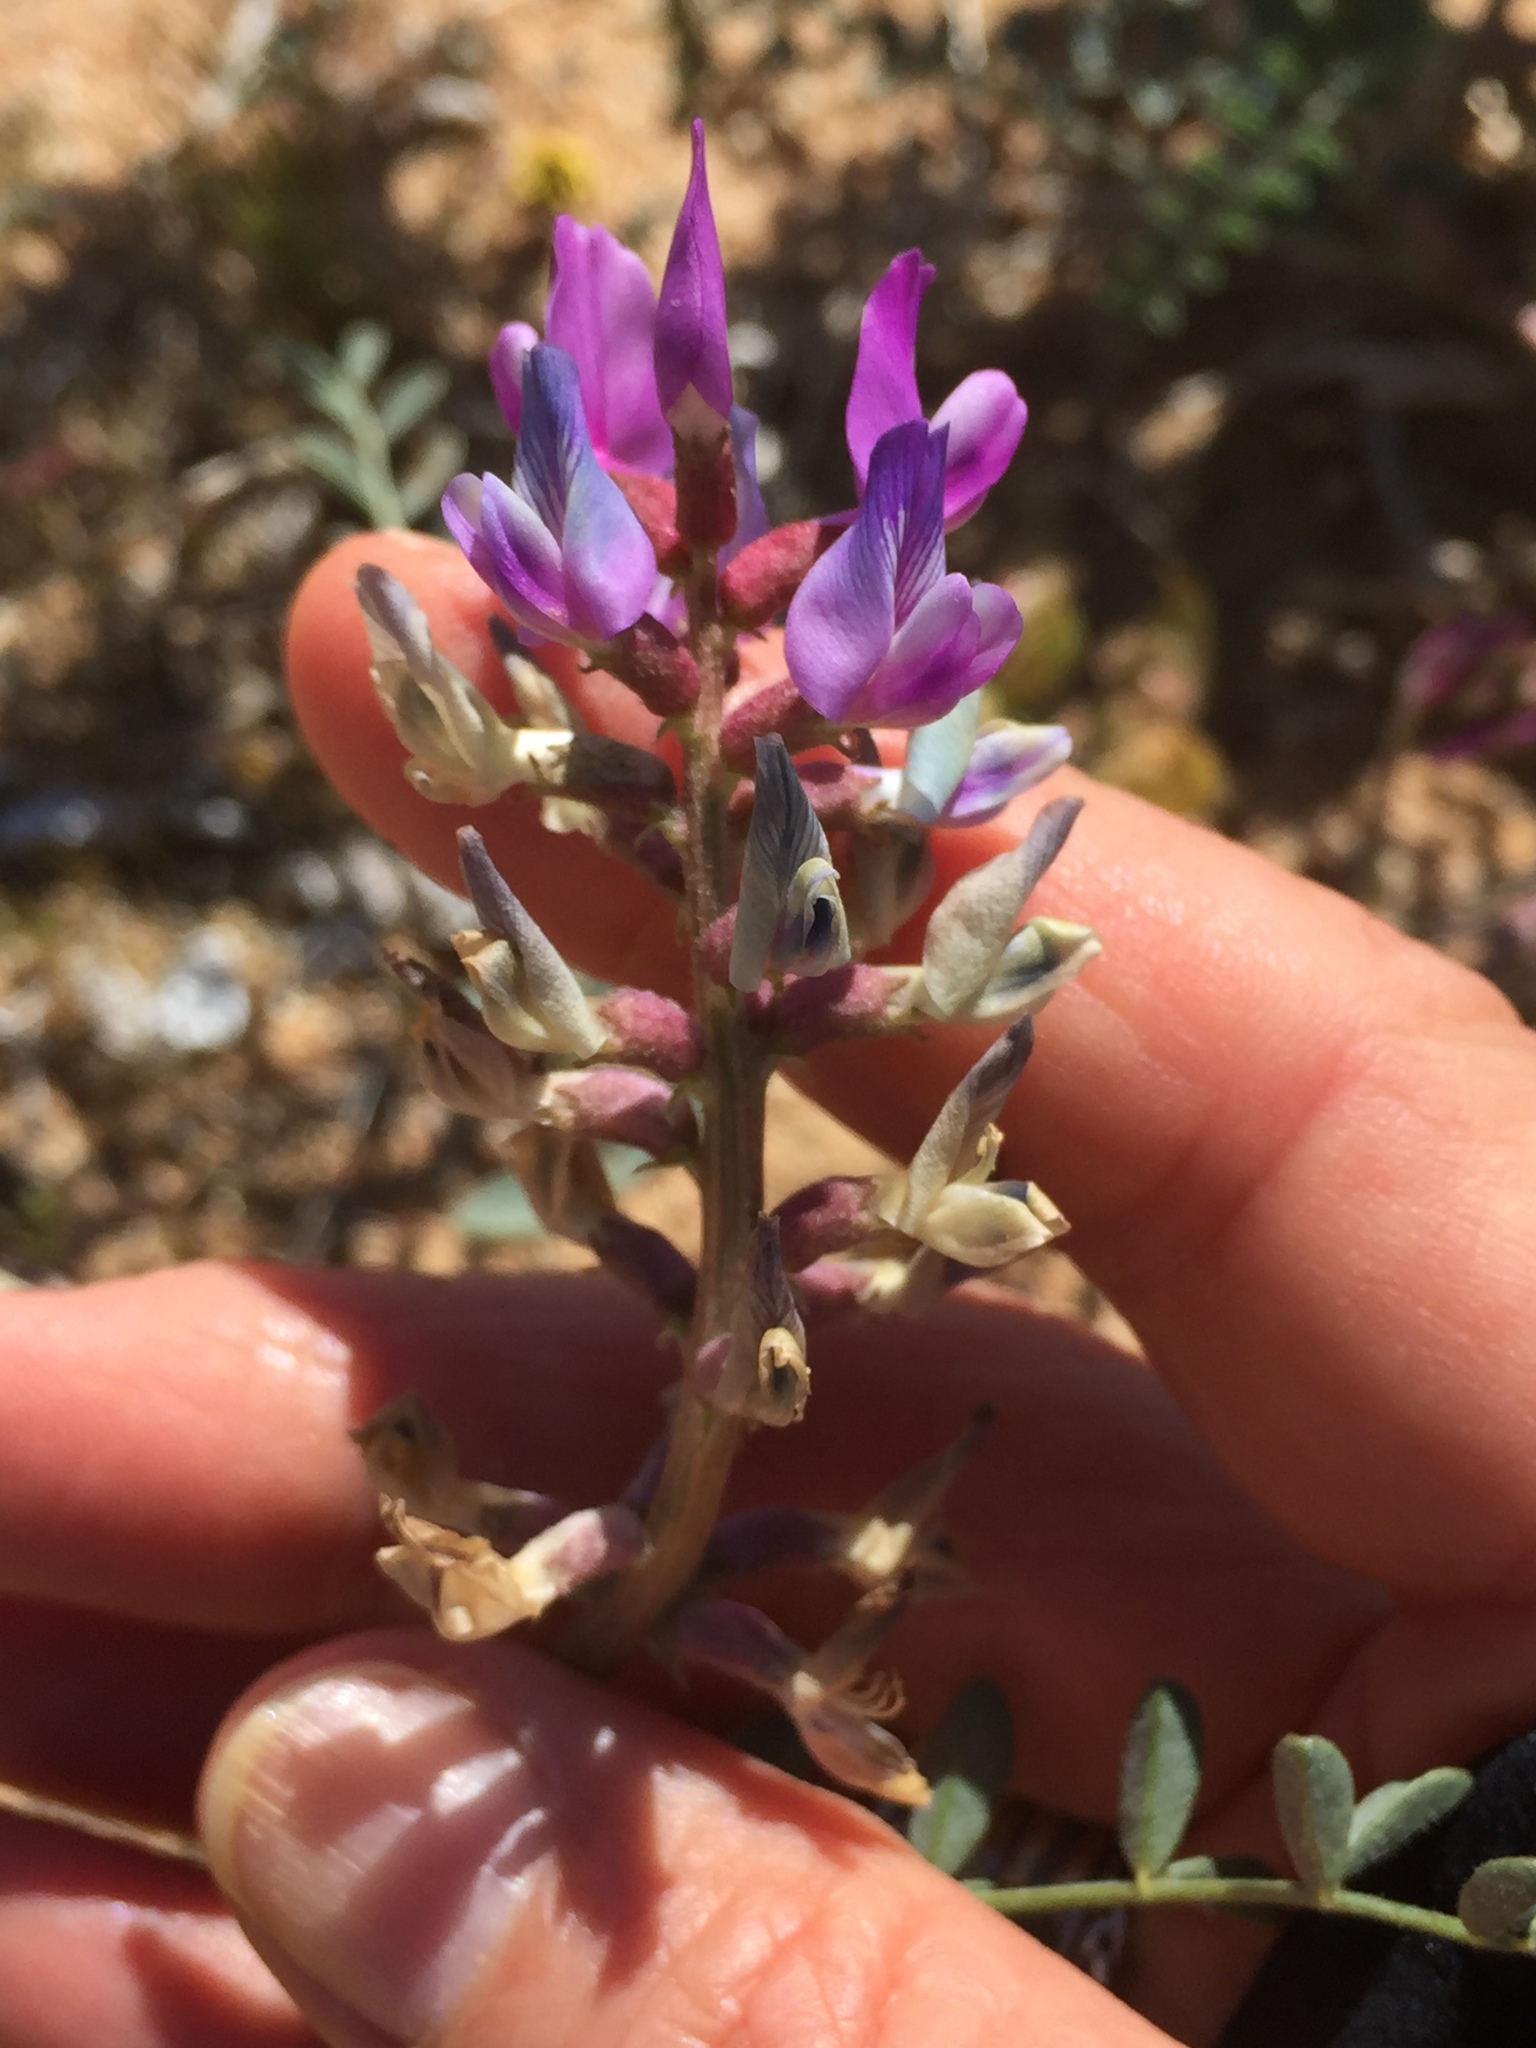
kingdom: Plantae
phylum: Tracheophyta
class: Magnoliopsida
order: Fabales
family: Fabaceae
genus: Astragalus
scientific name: Astragalus lentiginosus
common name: Freckled milkvetch
